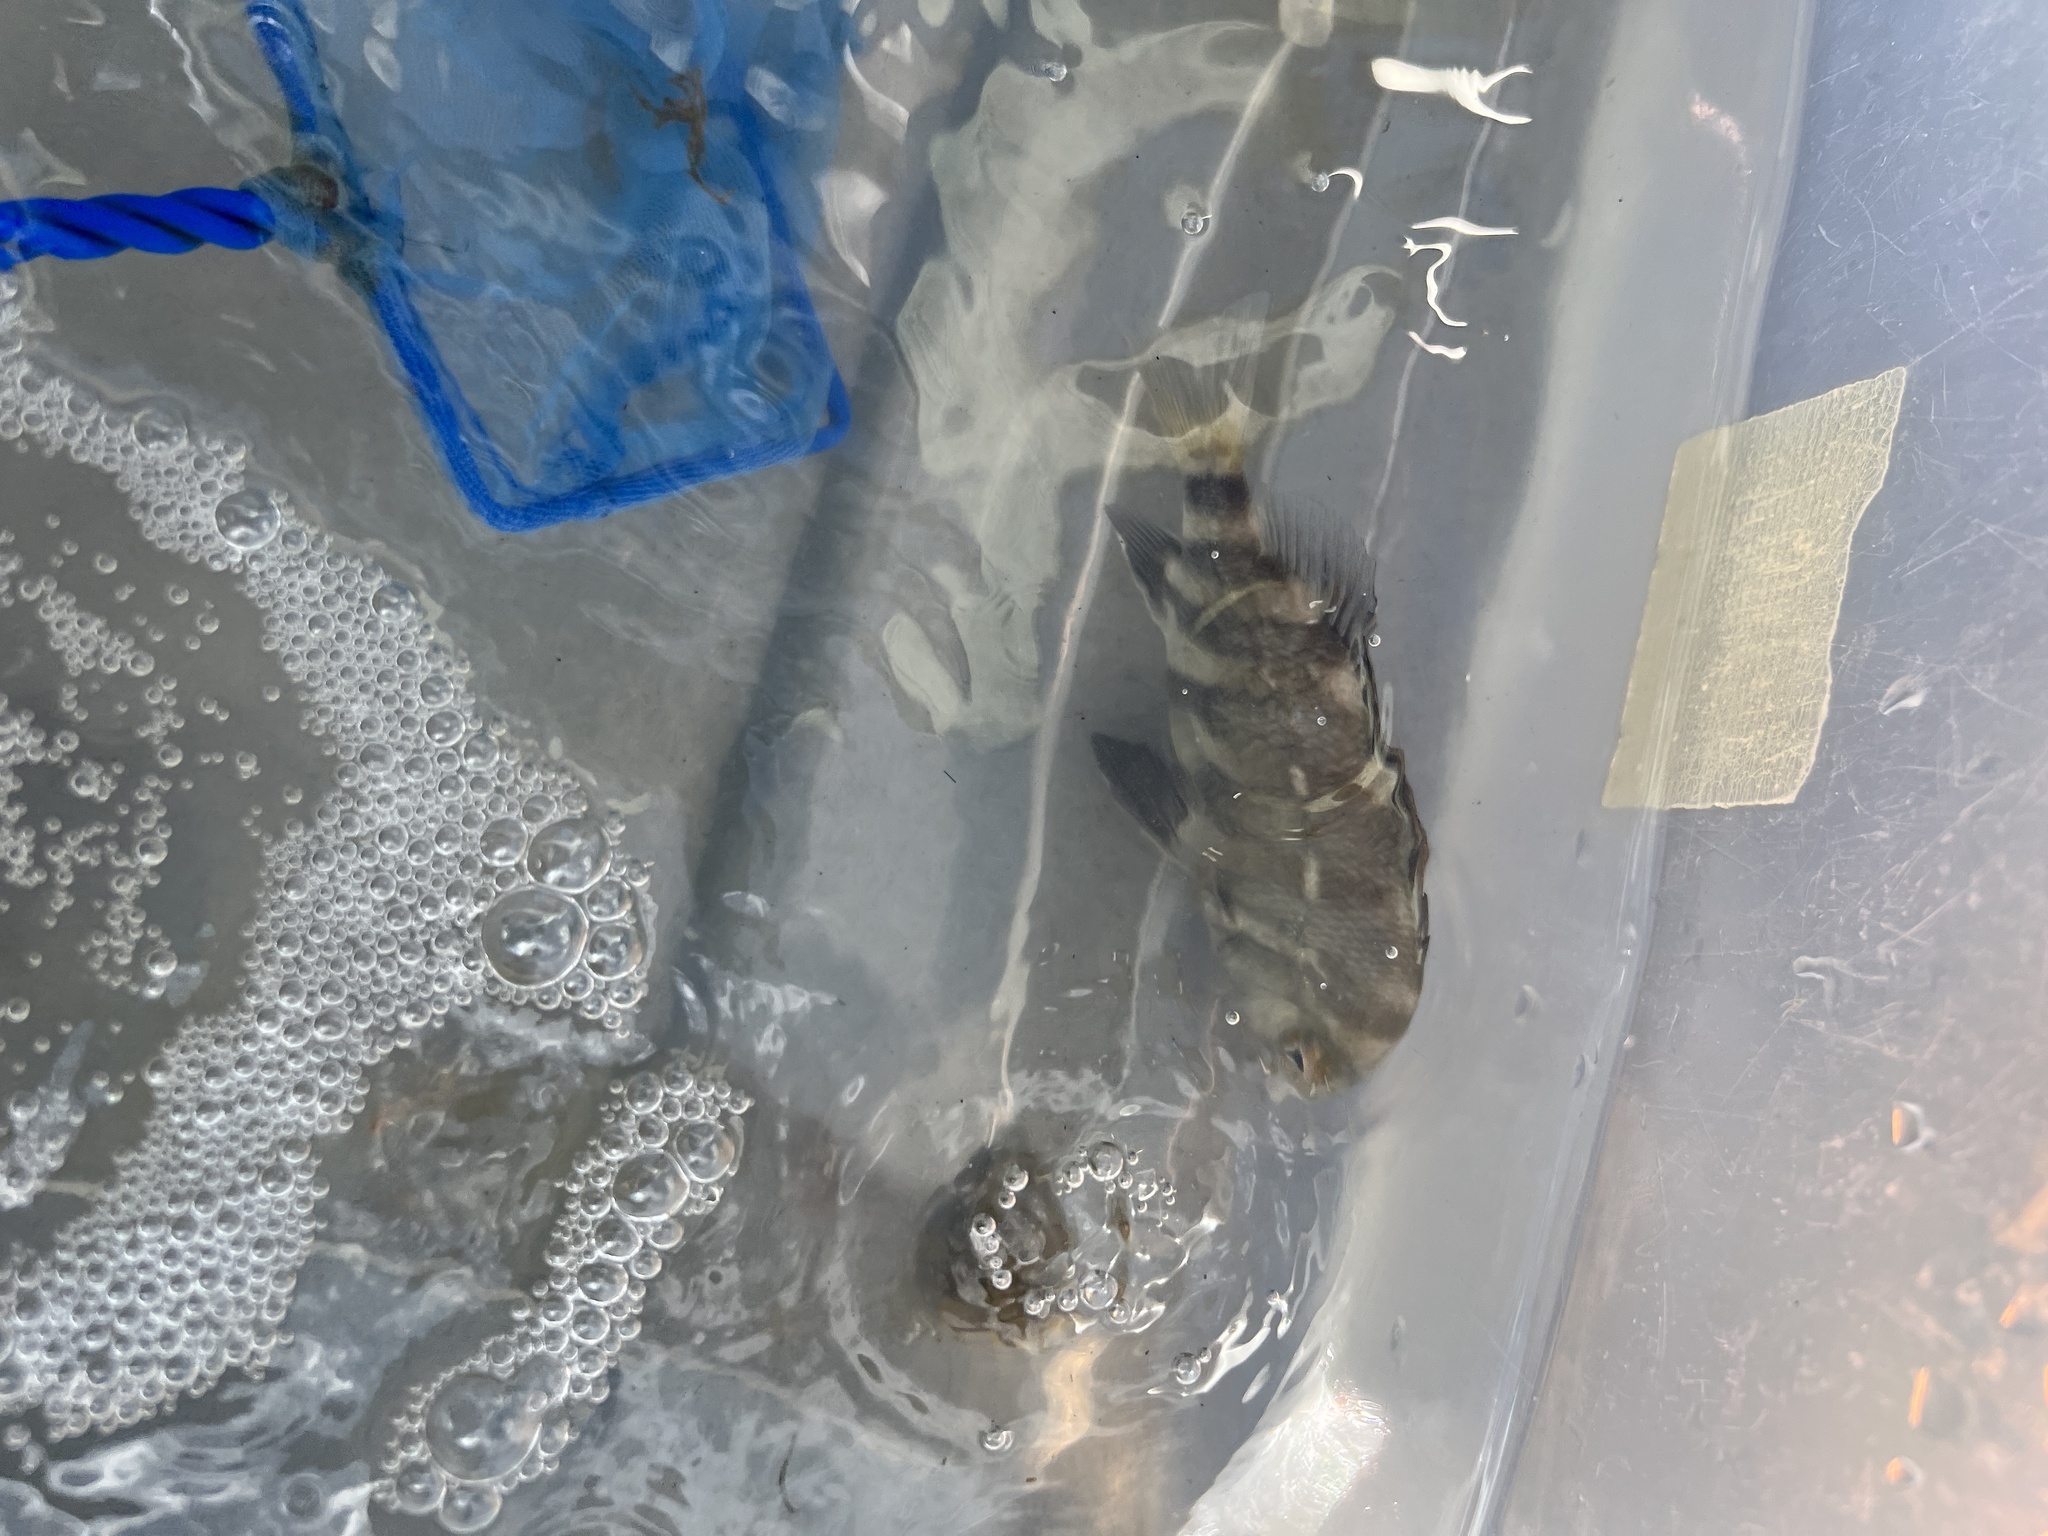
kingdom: Animalia
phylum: Chordata
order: Perciformes
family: Sparidae
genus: Archosargus
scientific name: Archosargus probatocephalus
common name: Sheepshead
